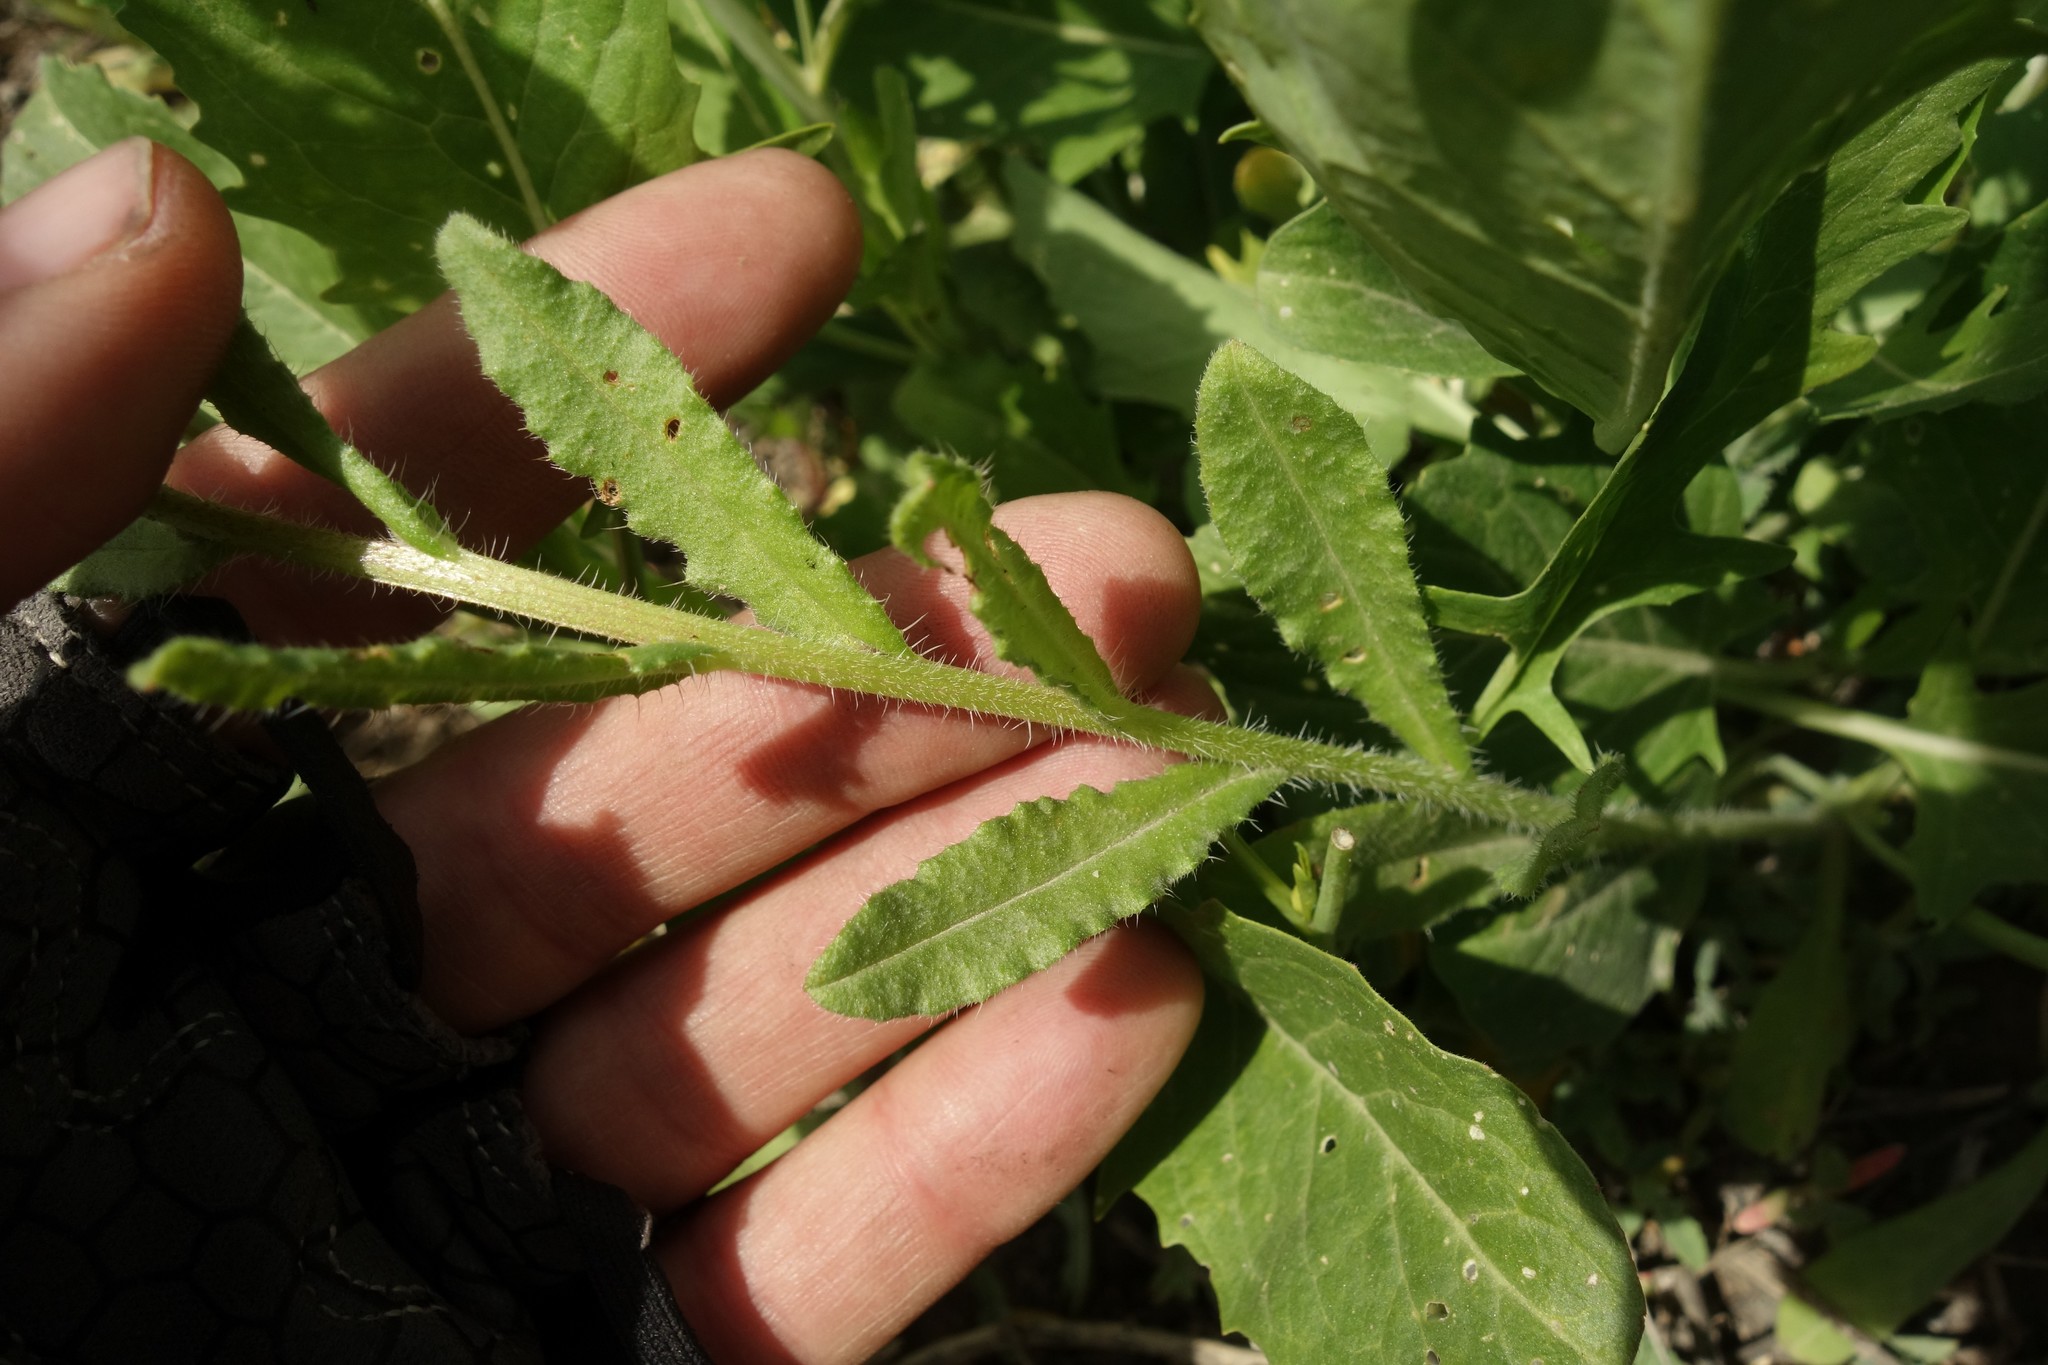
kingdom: Plantae
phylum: Tracheophyta
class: Magnoliopsida
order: Boraginales
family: Boraginaceae
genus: Lycopsis
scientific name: Lycopsis arvensis
